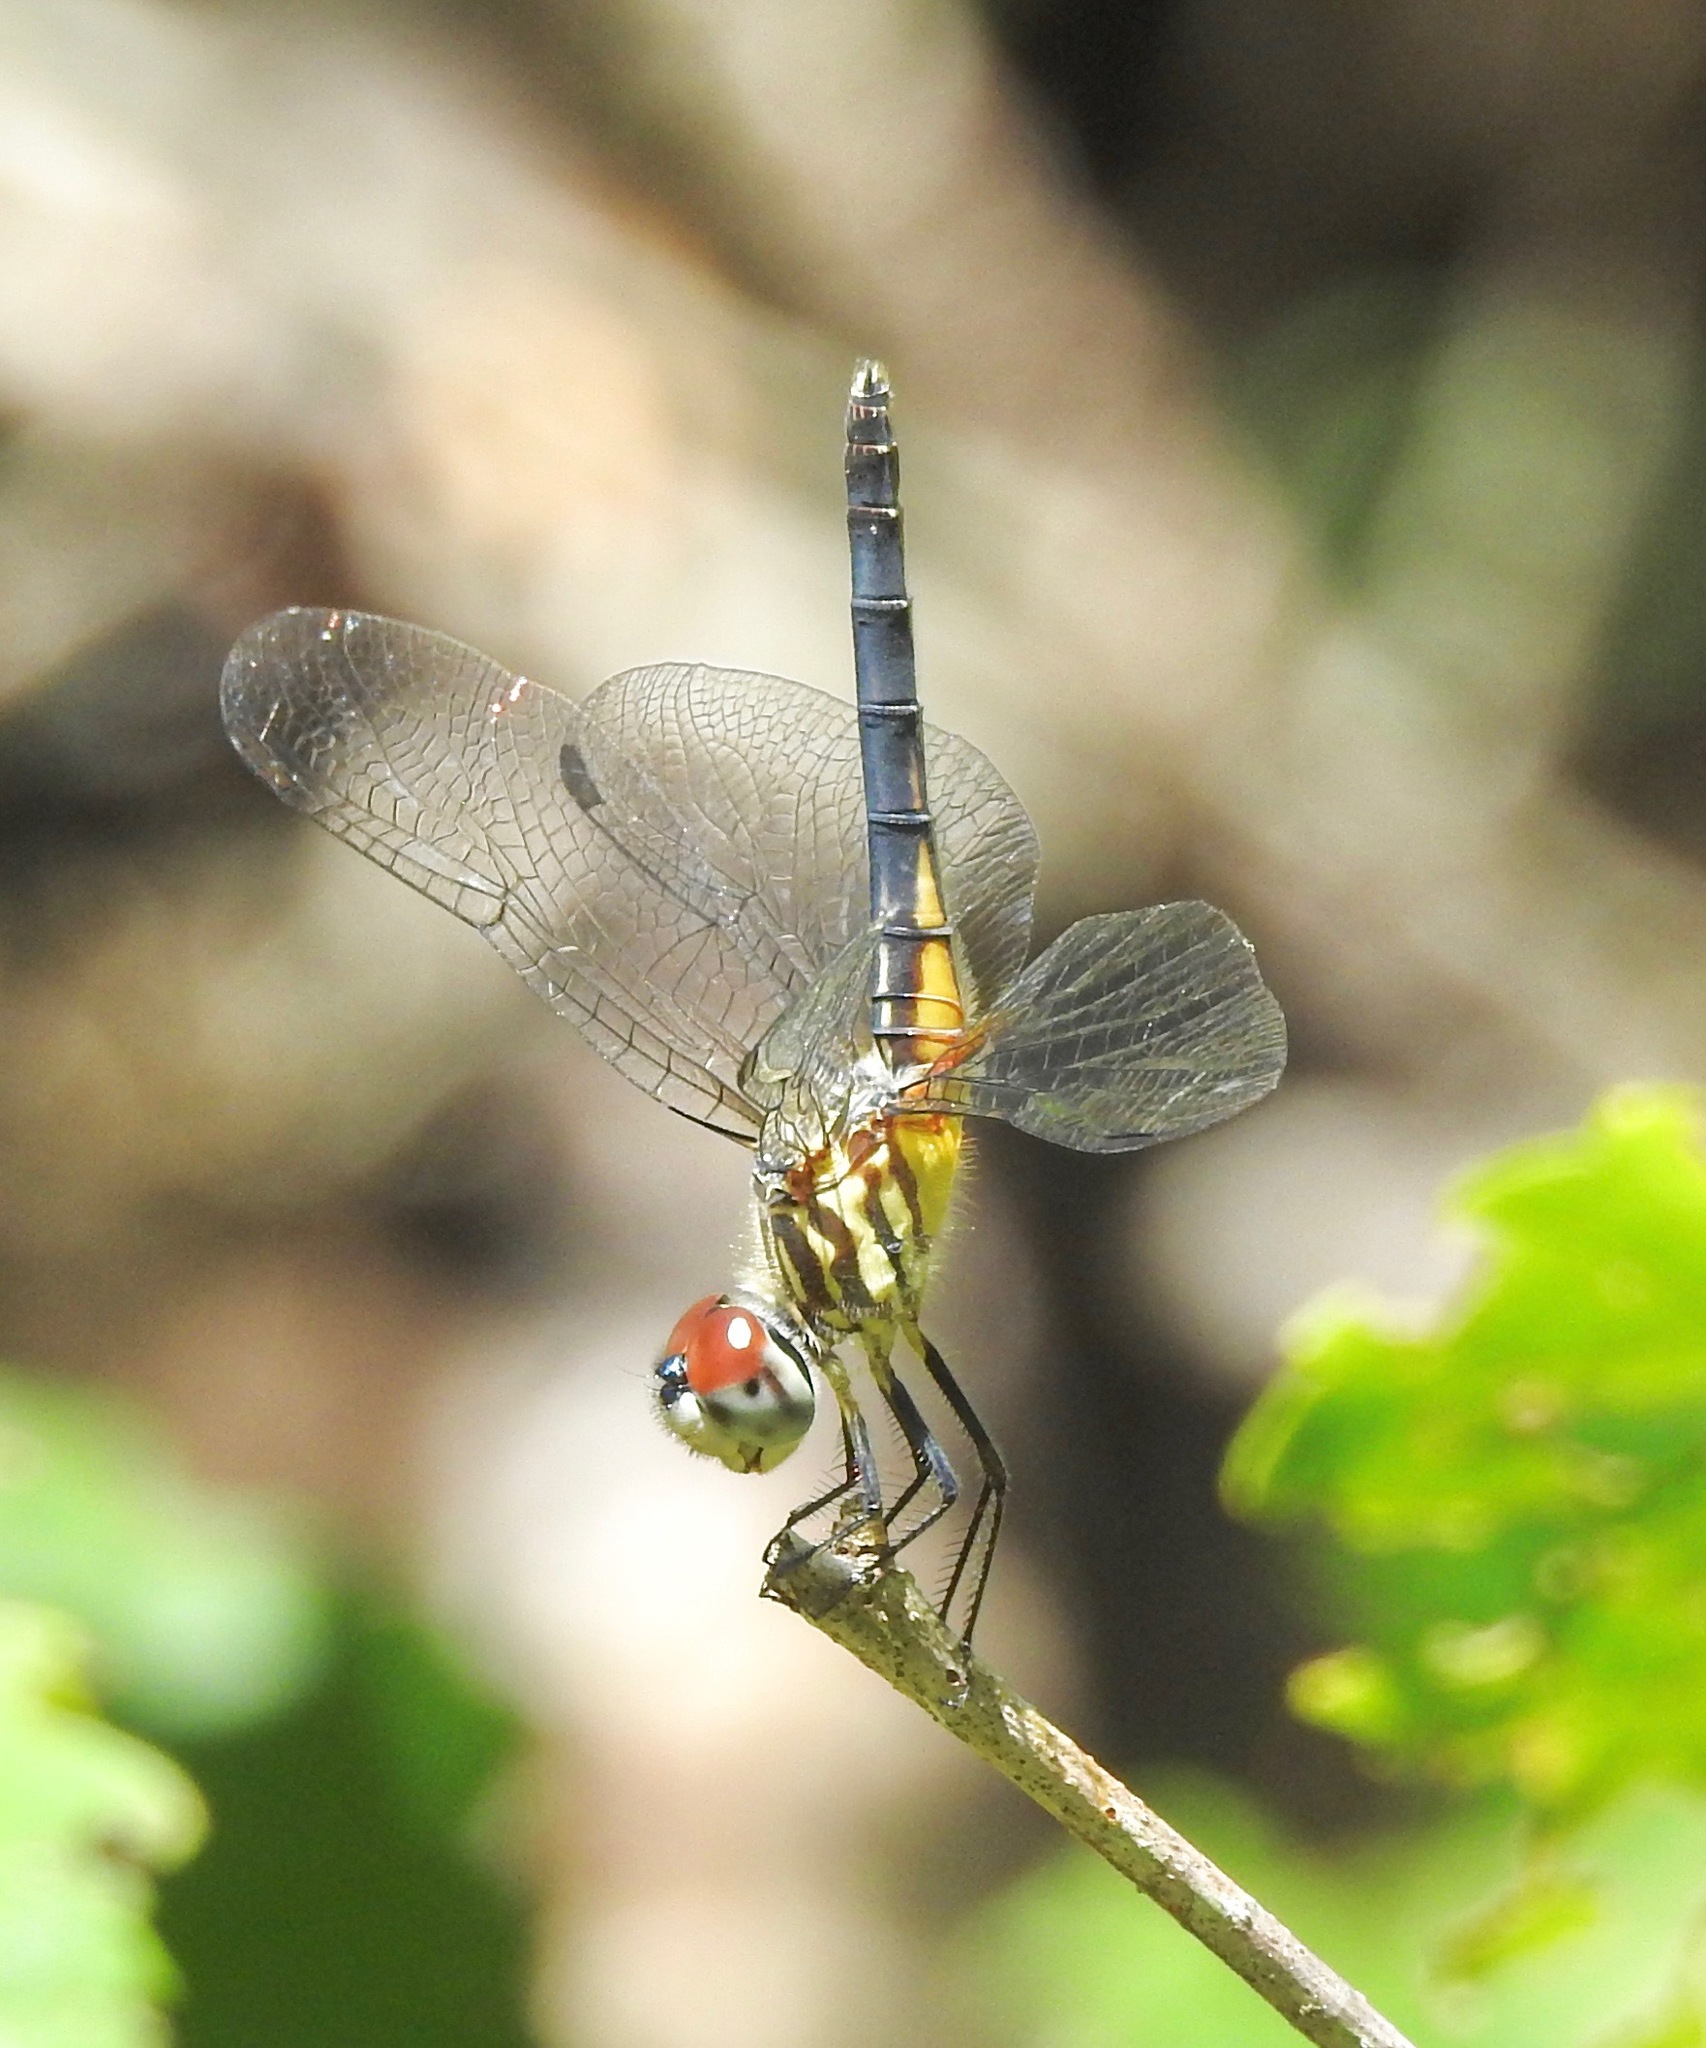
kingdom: Animalia
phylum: Arthropoda
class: Insecta
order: Odonata
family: Libellulidae
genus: Pachydiplax
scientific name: Pachydiplax longipennis
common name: Blue dasher
